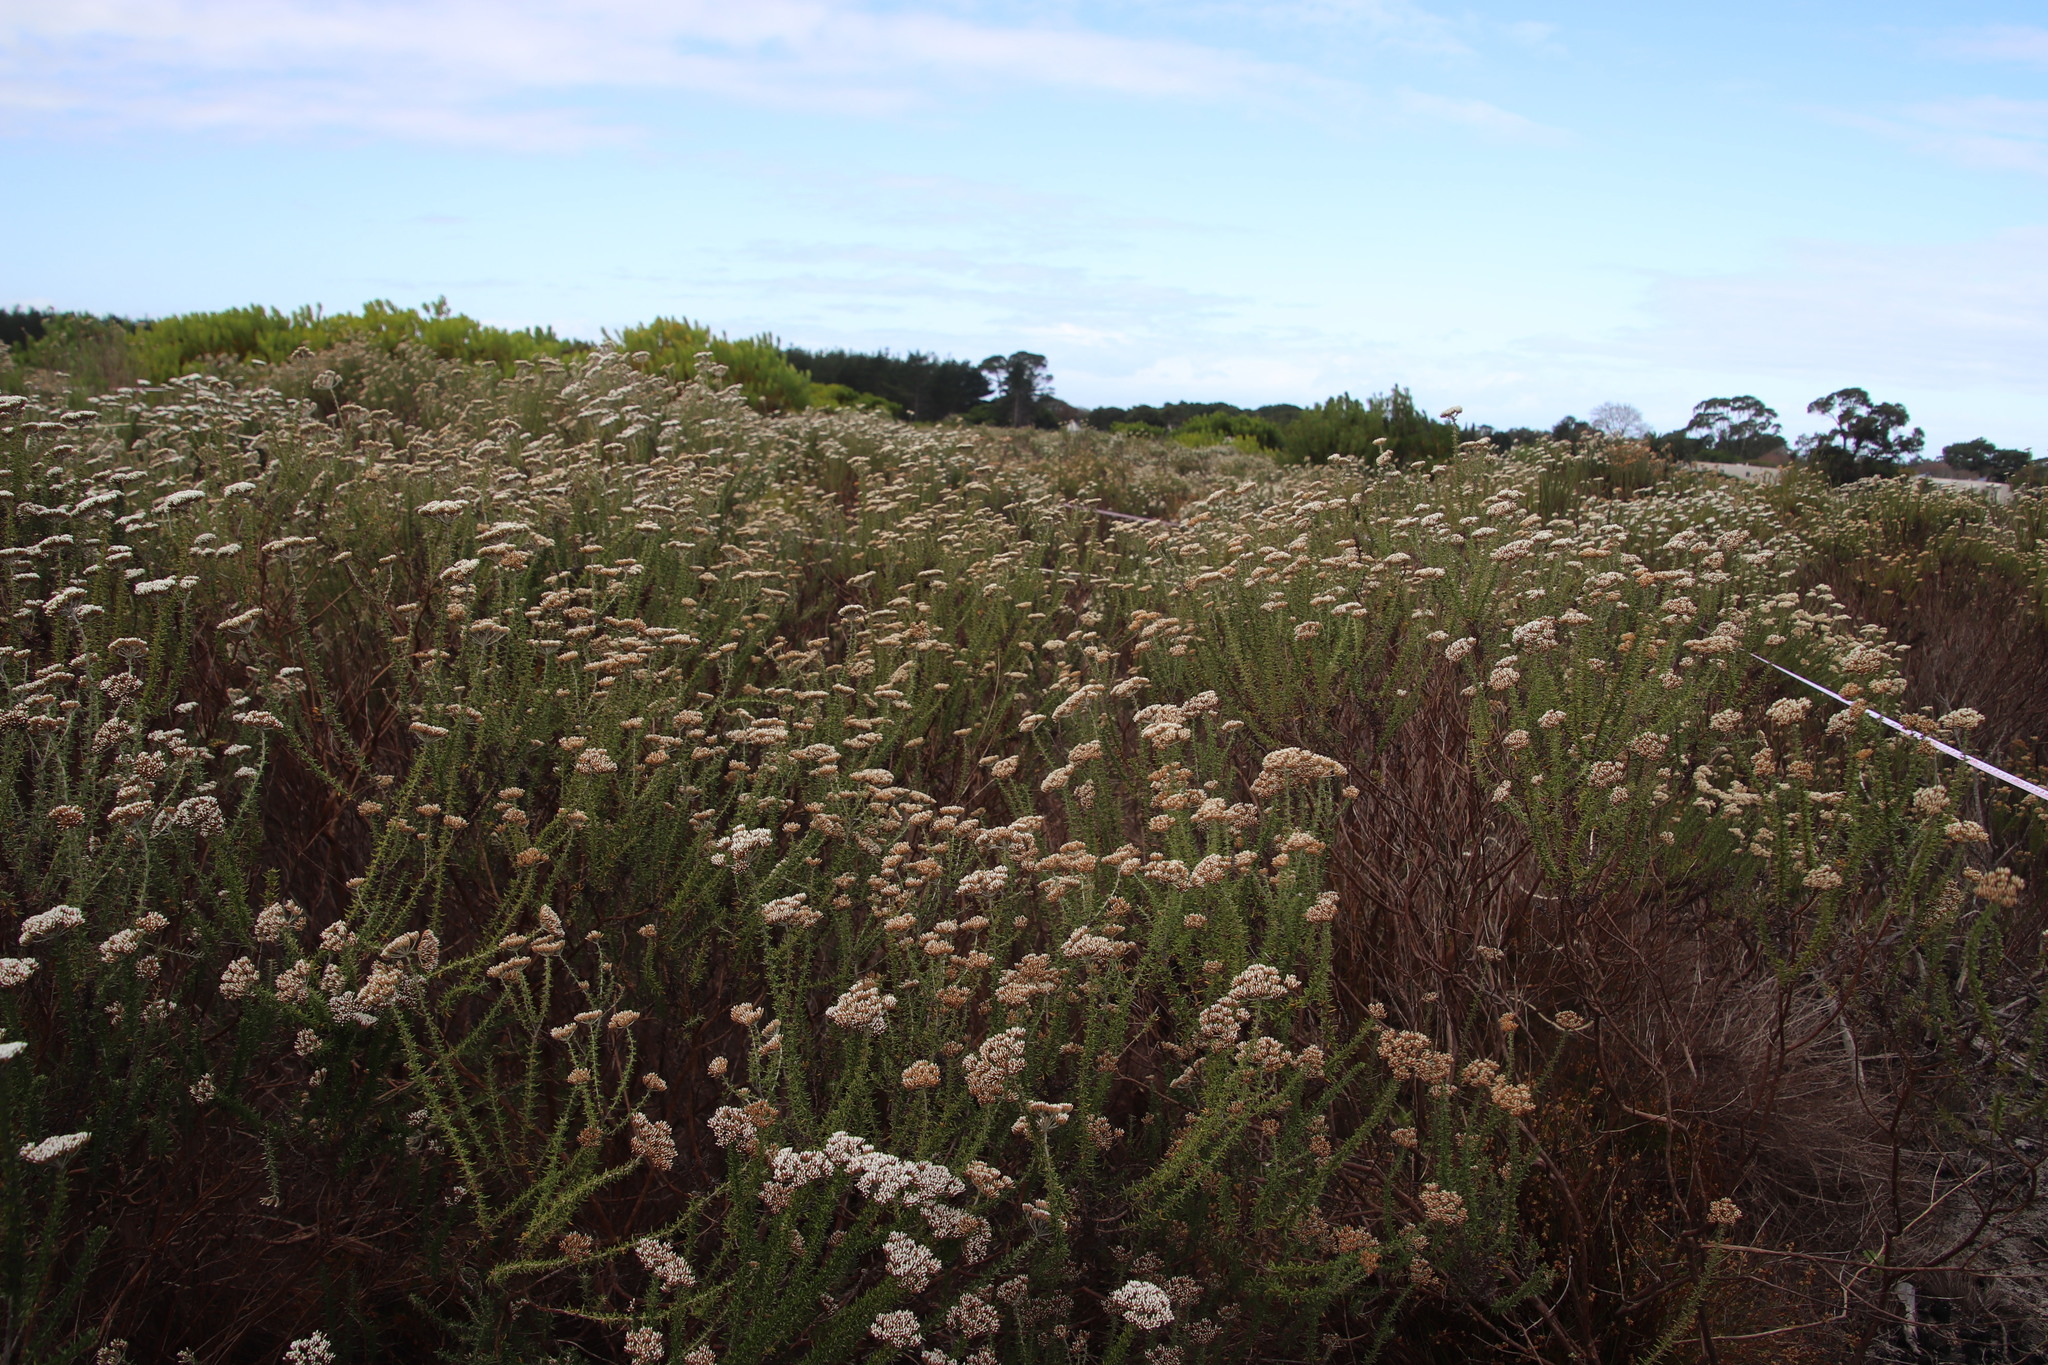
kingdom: Plantae
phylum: Tracheophyta
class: Magnoliopsida
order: Asterales
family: Asteraceae
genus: Metalasia
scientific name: Metalasia densa
